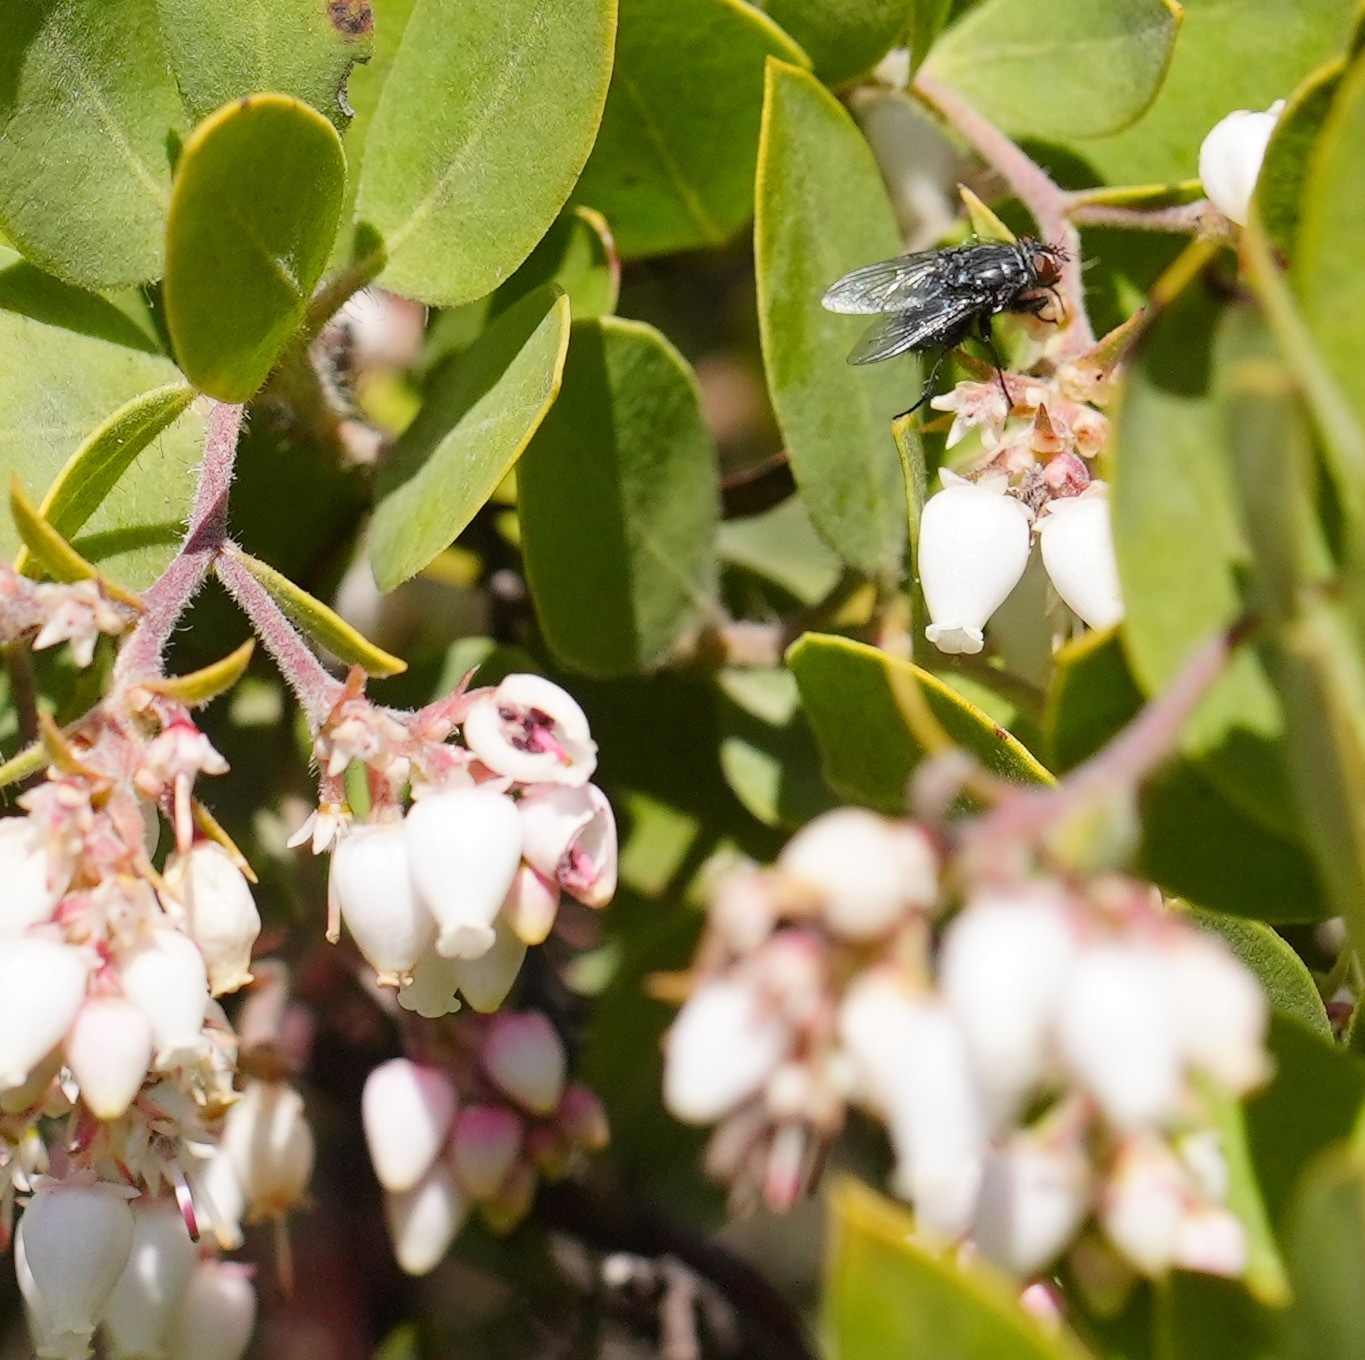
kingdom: Plantae
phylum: Tracheophyta
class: Magnoliopsida
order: Ericales
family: Ericaceae
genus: Arctostaphylos
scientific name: Arctostaphylos crustacea
